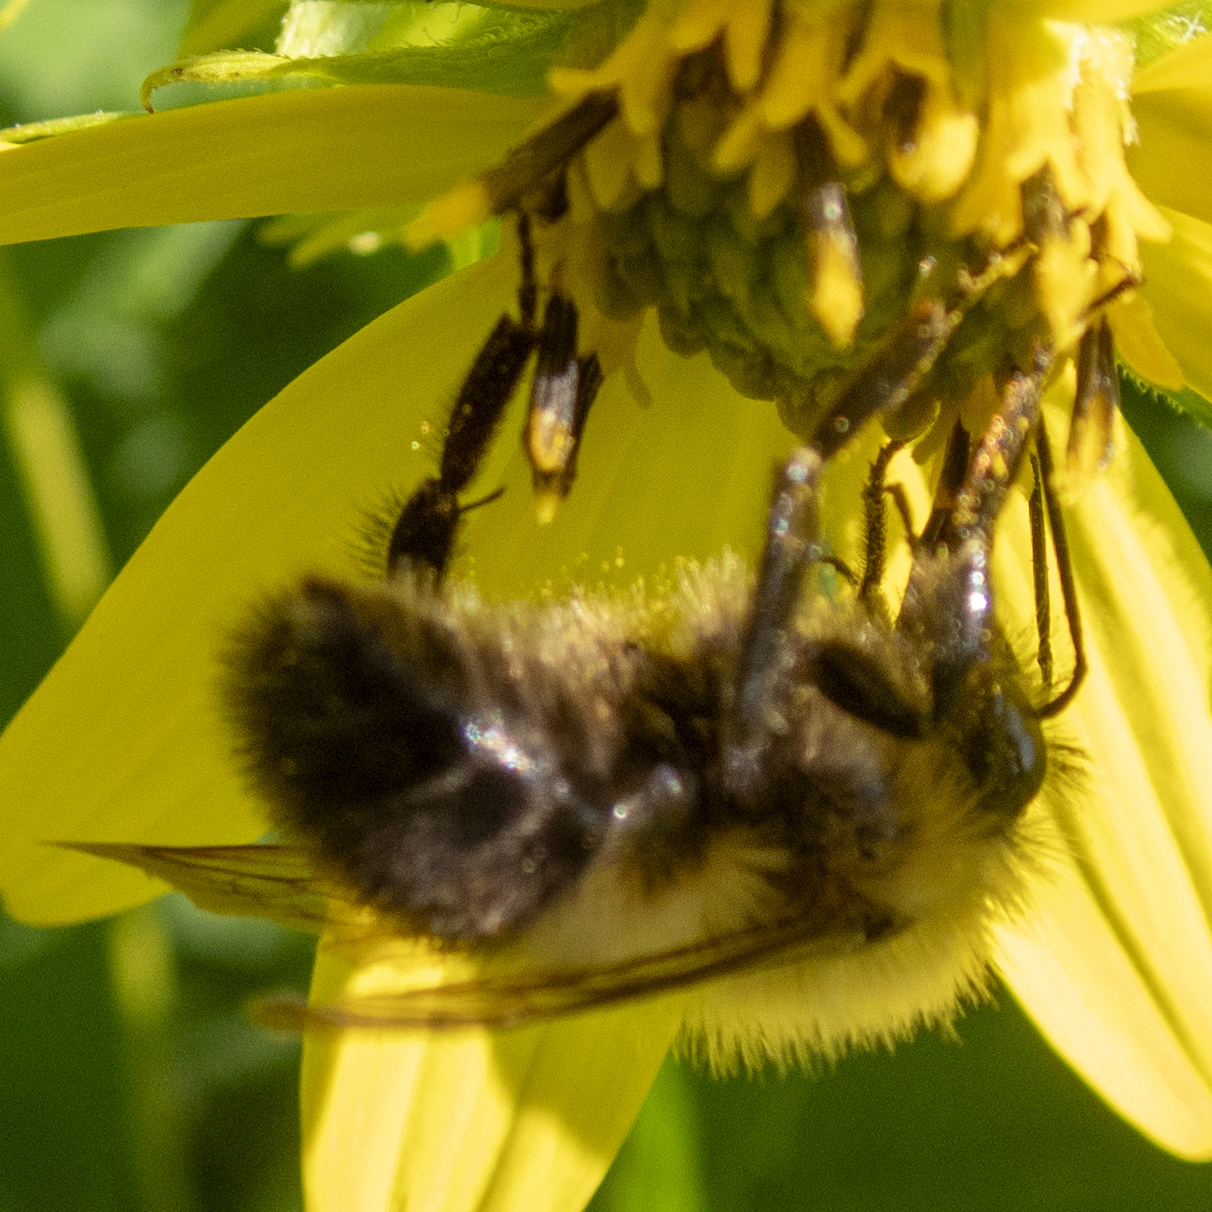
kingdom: Animalia
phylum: Arthropoda
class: Insecta
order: Hymenoptera
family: Apidae
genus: Bombus
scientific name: Bombus bimaculatus
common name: Two-spotted bumble bee
